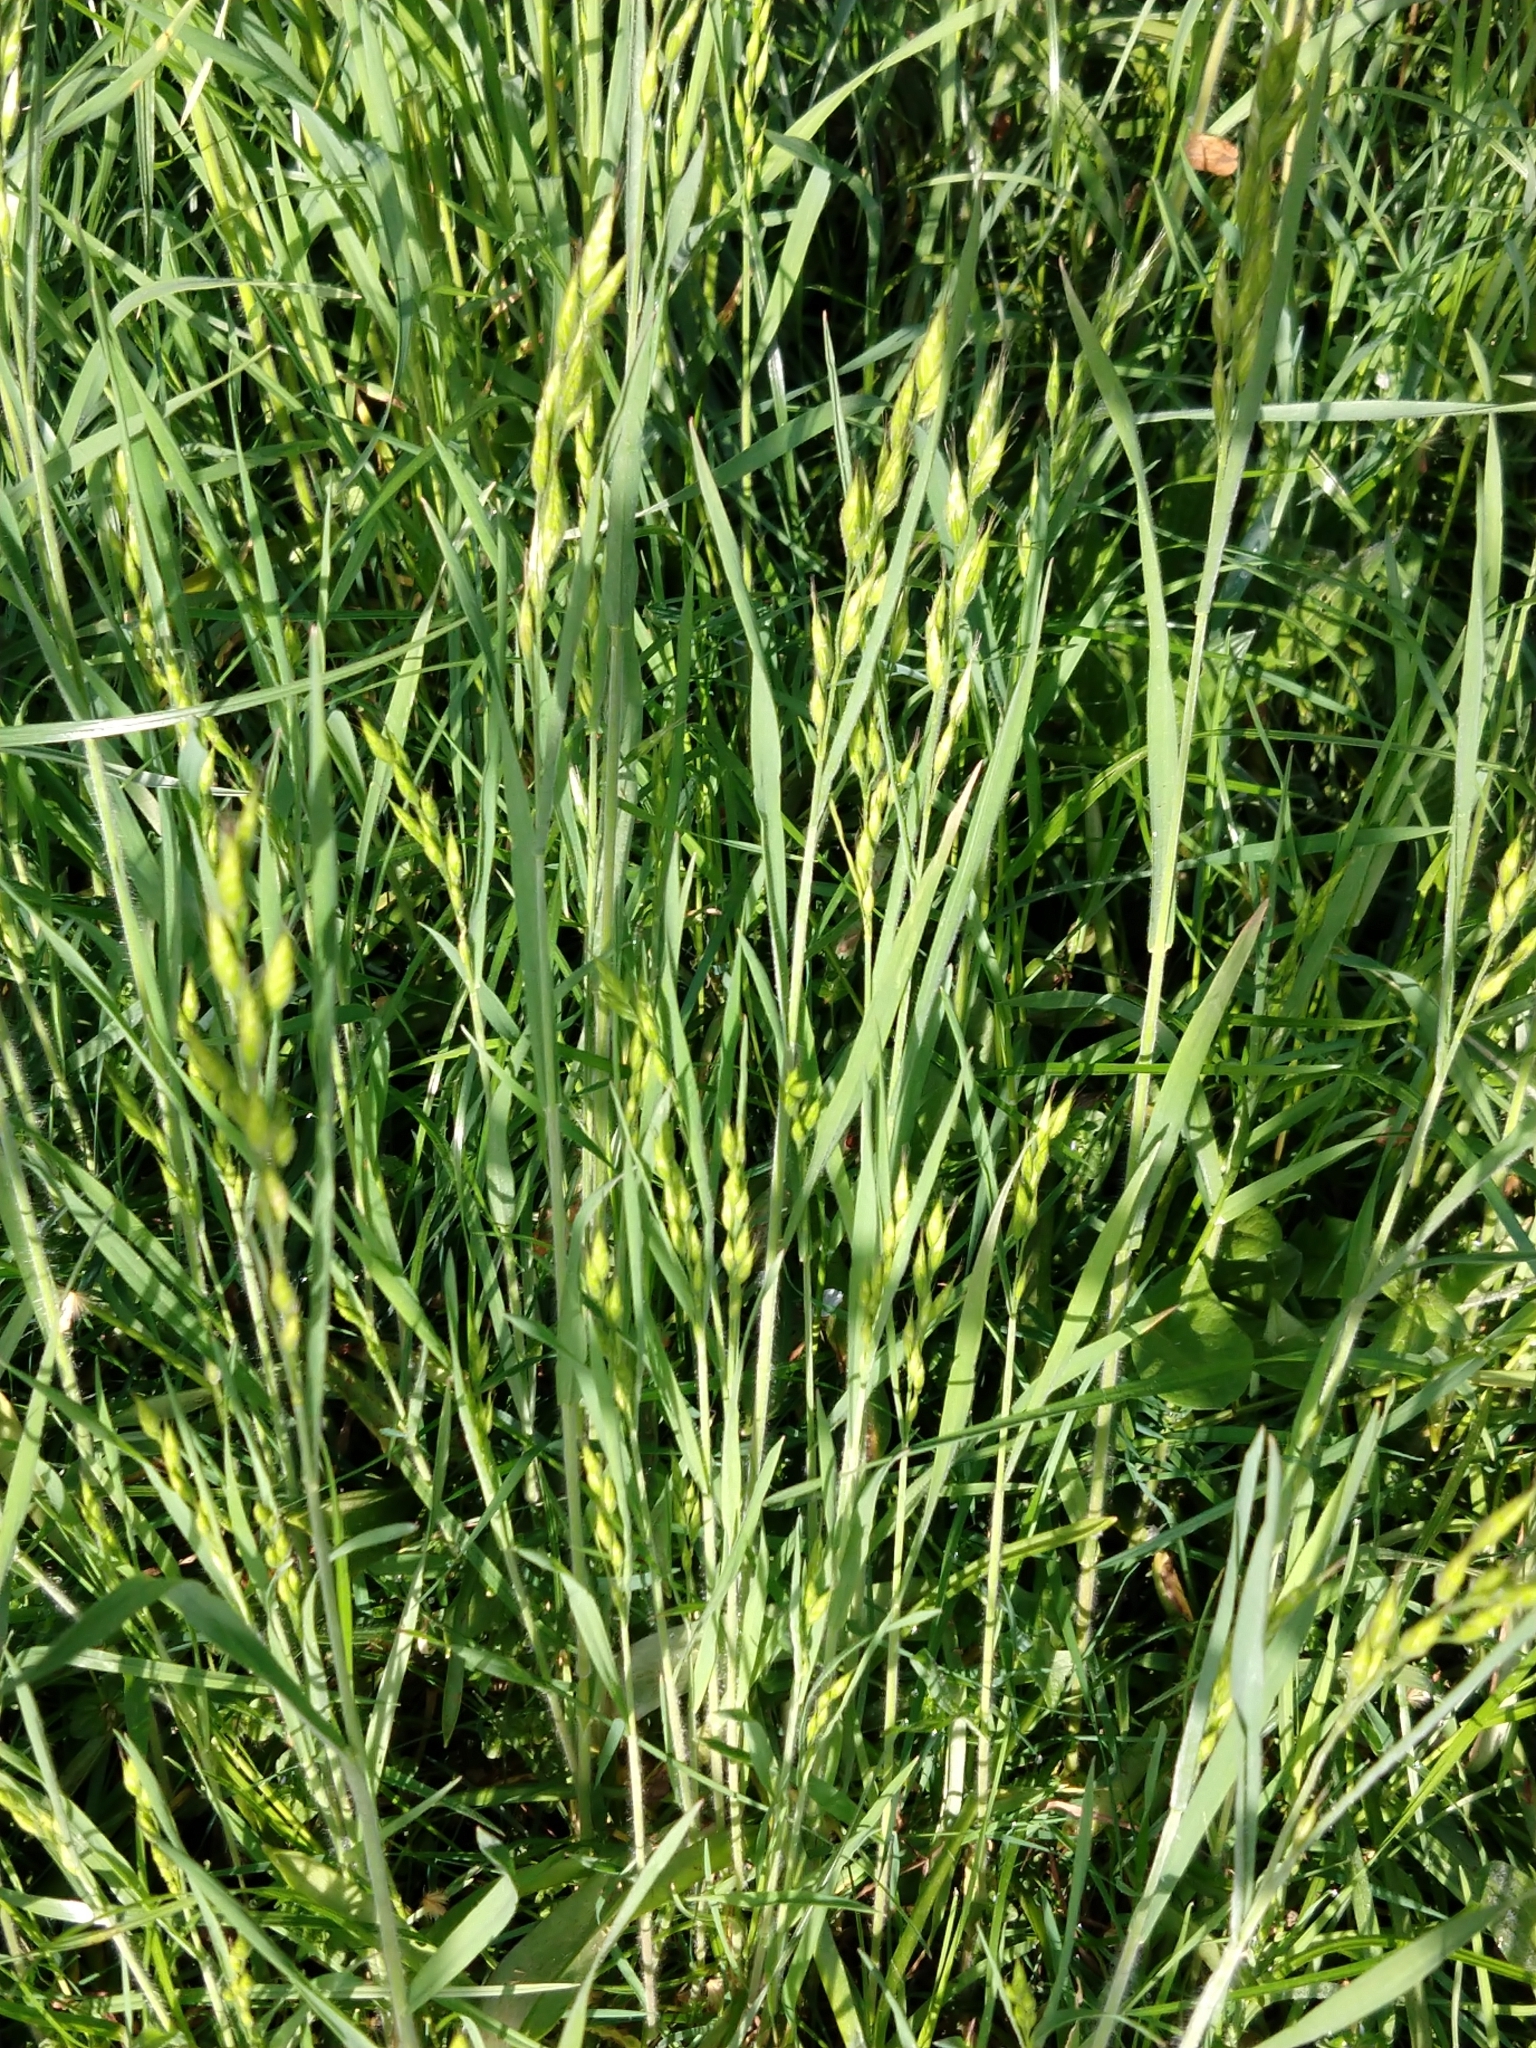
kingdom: Plantae
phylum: Tracheophyta
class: Liliopsida
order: Poales
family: Poaceae
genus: Bromus
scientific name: Bromus hordeaceus
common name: Soft brome
